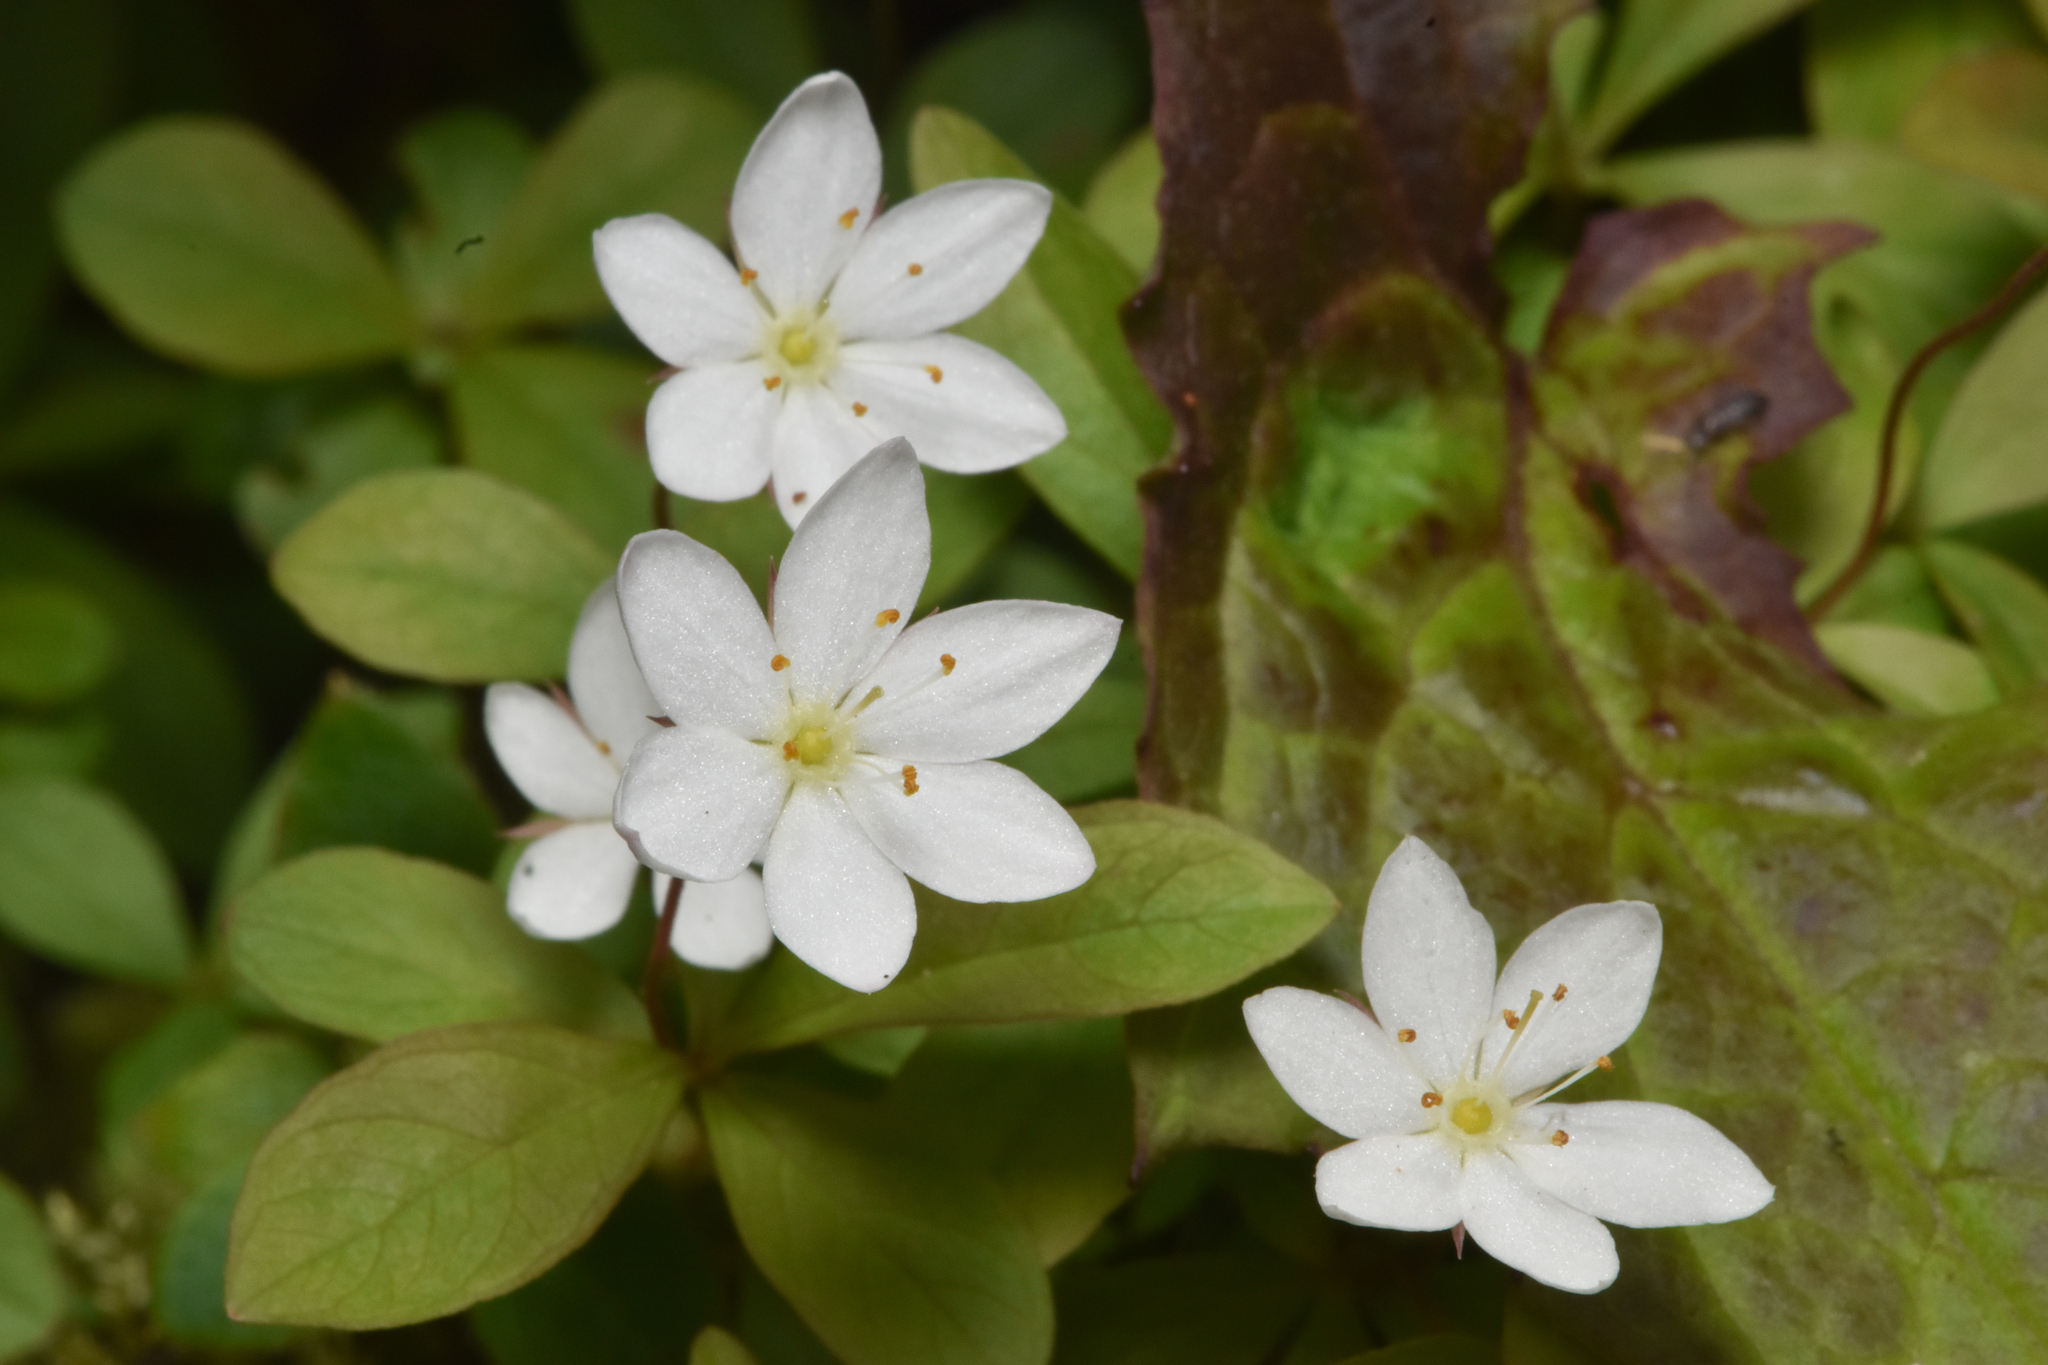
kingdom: Plantae
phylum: Tracheophyta
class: Magnoliopsida
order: Ericales
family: Primulaceae
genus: Lysimachia
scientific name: Lysimachia europaea
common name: Arctic starflower
